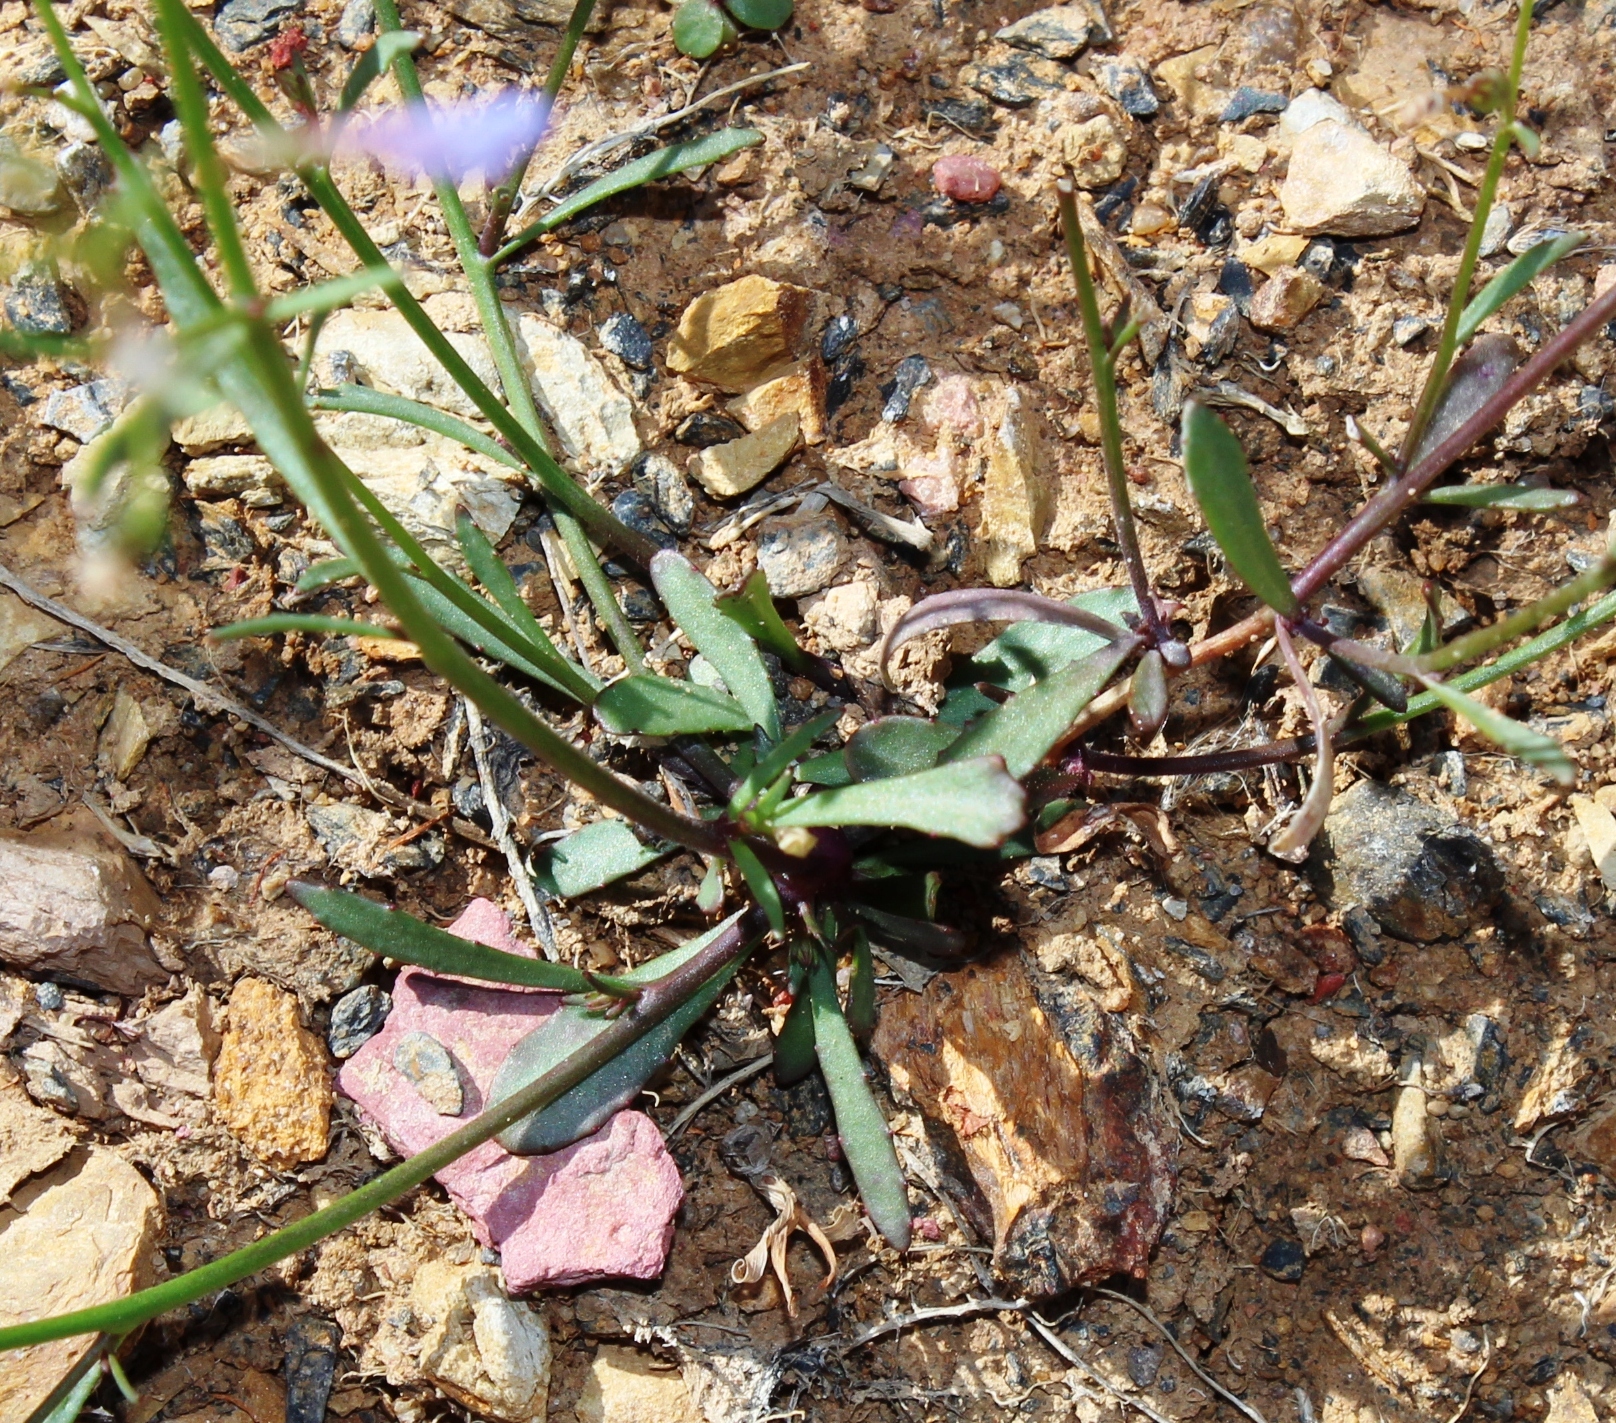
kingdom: Plantae
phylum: Tracheophyta
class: Magnoliopsida
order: Asterales
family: Campanulaceae
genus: Wimmerella
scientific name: Wimmerella arabidea
